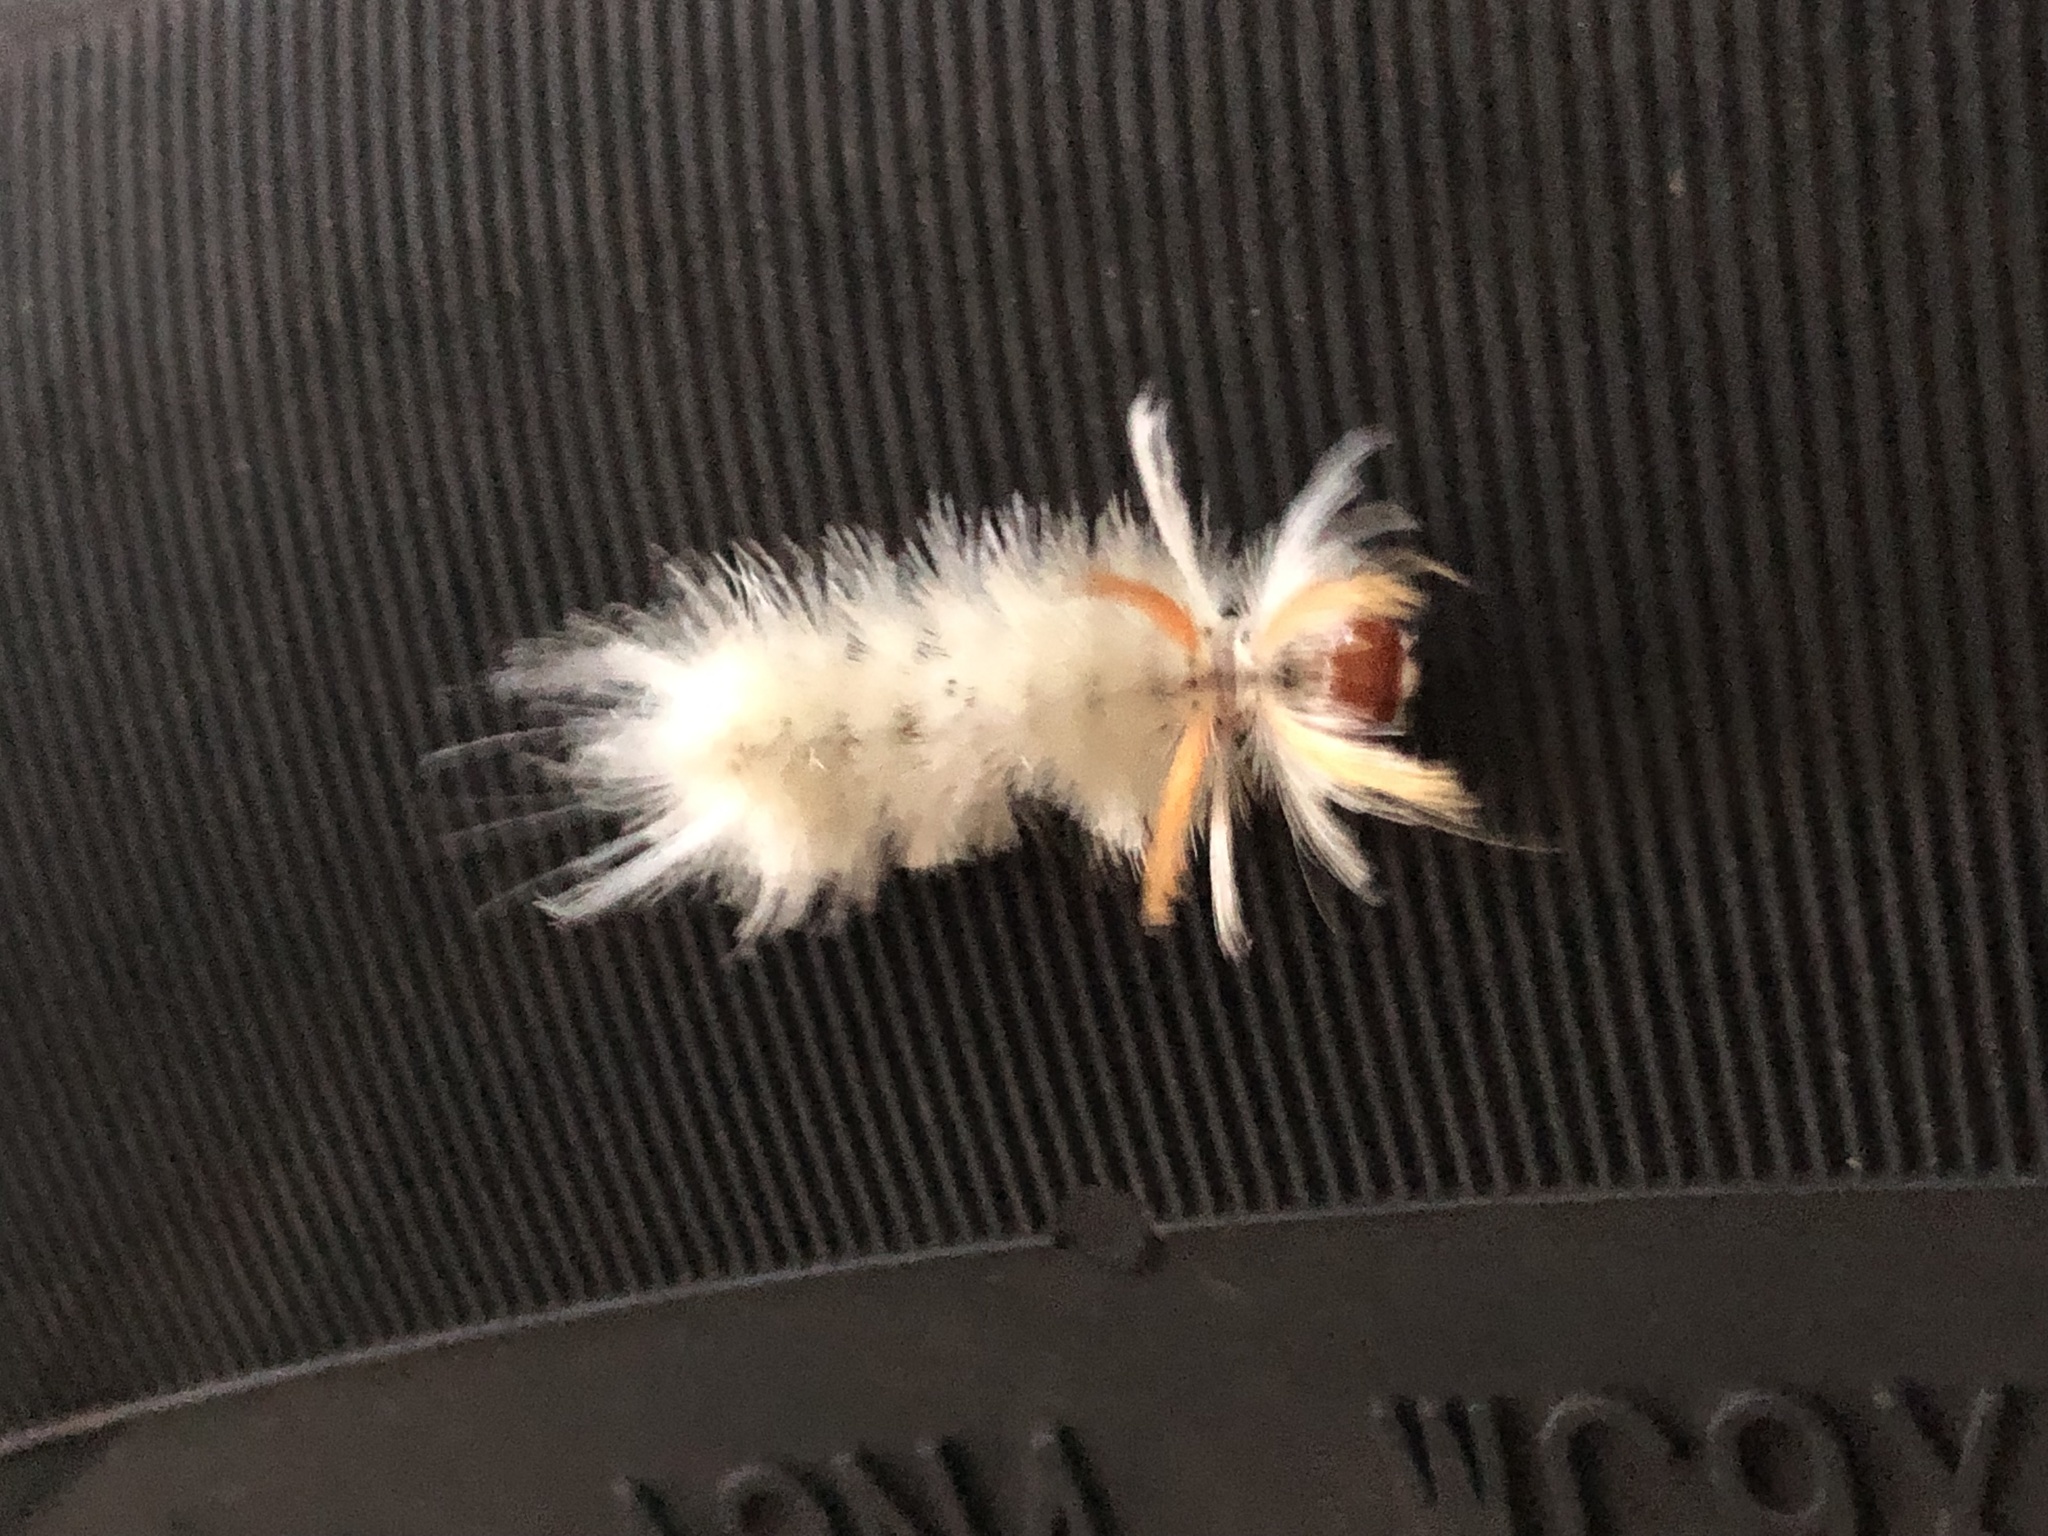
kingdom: Animalia
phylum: Arthropoda
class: Insecta
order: Lepidoptera
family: Erebidae
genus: Halysidota
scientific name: Halysidota harrisii
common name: Sycamore tussock moth
